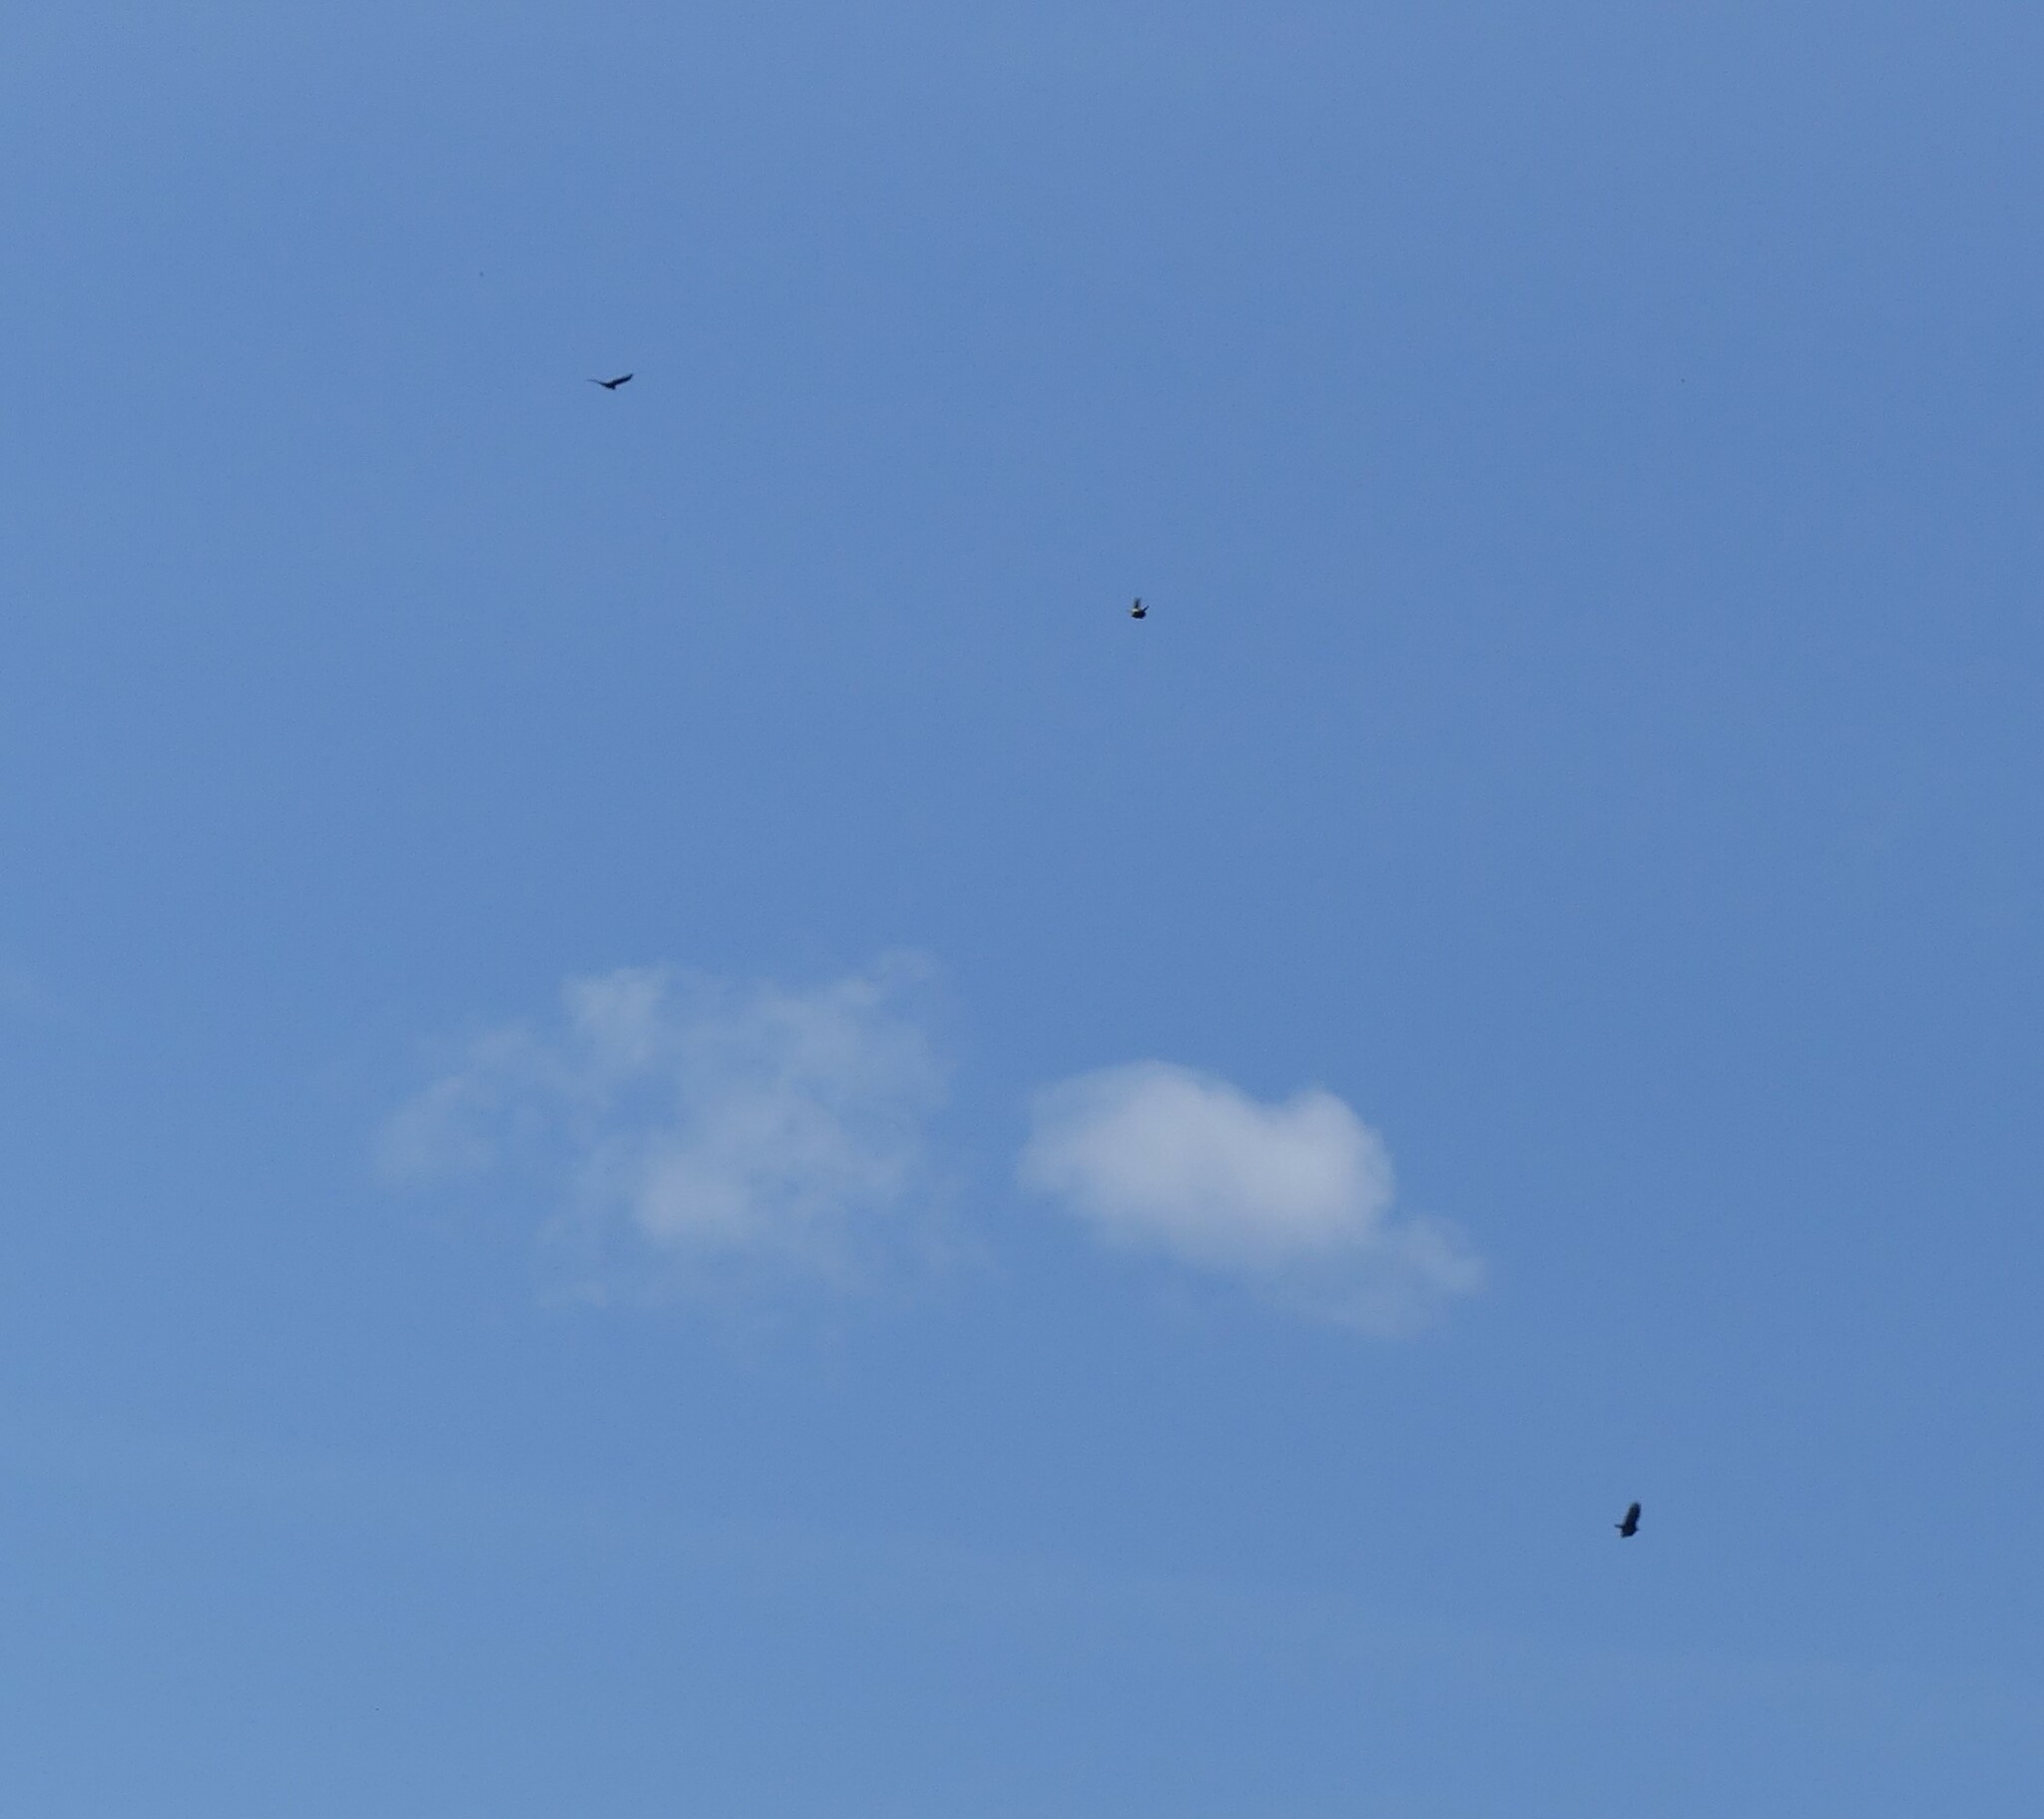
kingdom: Animalia
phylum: Chordata
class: Aves
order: Accipitriformes
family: Cathartidae
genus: Cathartes
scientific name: Cathartes aura
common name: Turkey vulture
